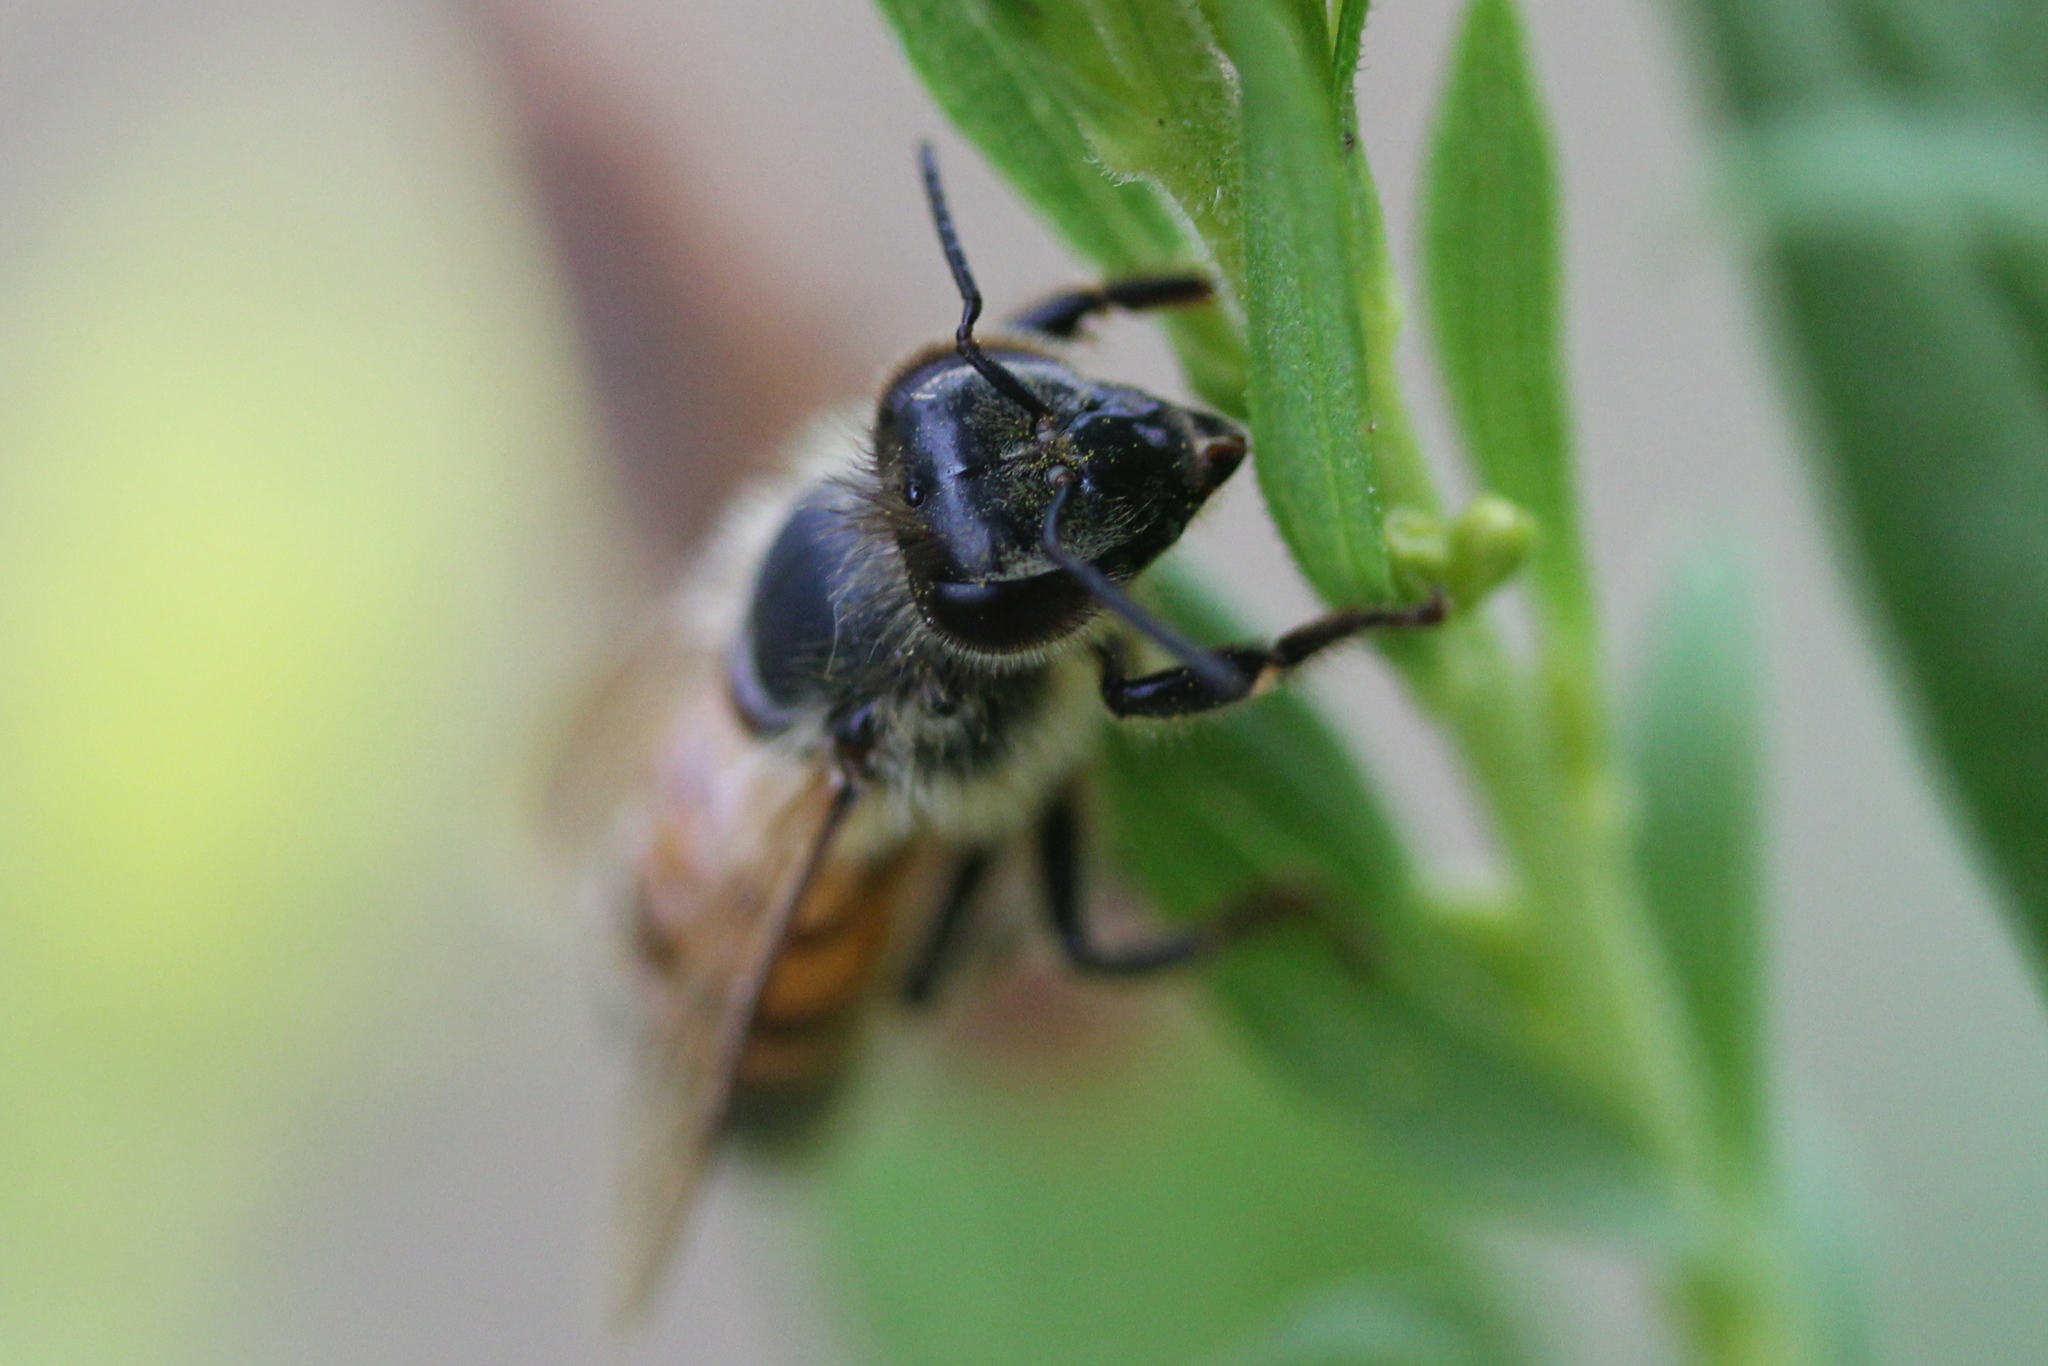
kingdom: Animalia
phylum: Arthropoda
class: Insecta
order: Hymenoptera
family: Apidae
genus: Apis
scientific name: Apis mellifera
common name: Honey bee
